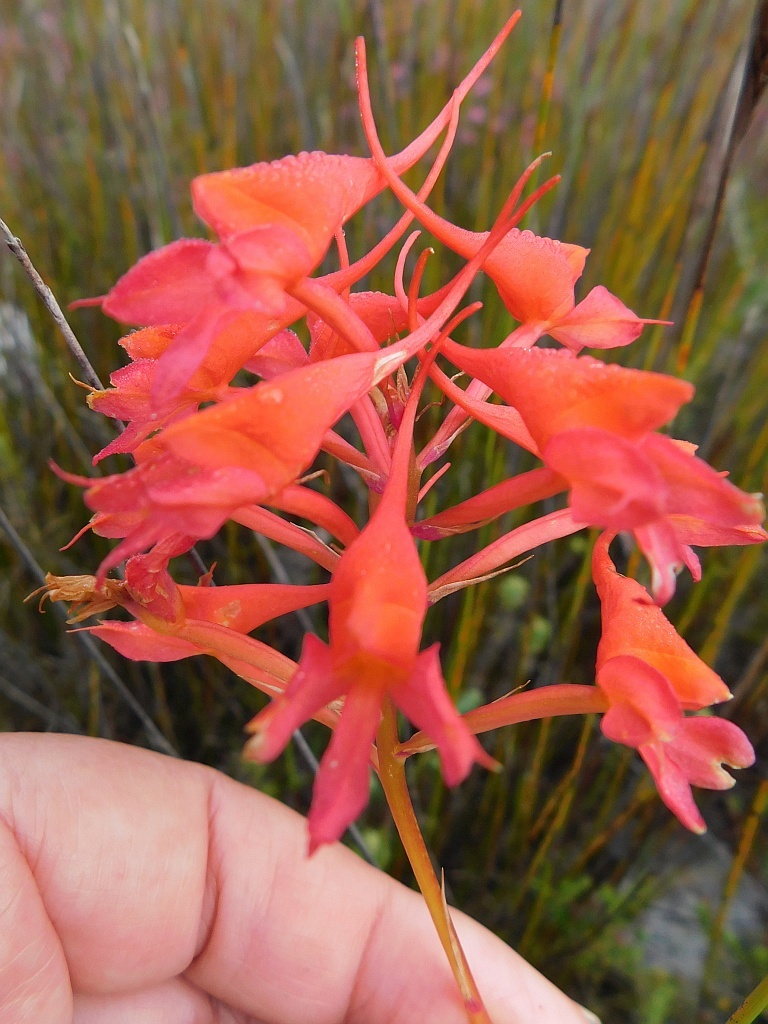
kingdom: Plantae
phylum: Tracheophyta
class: Liliopsida
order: Asparagales
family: Orchidaceae
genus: Disa
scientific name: Disa ferruginea
